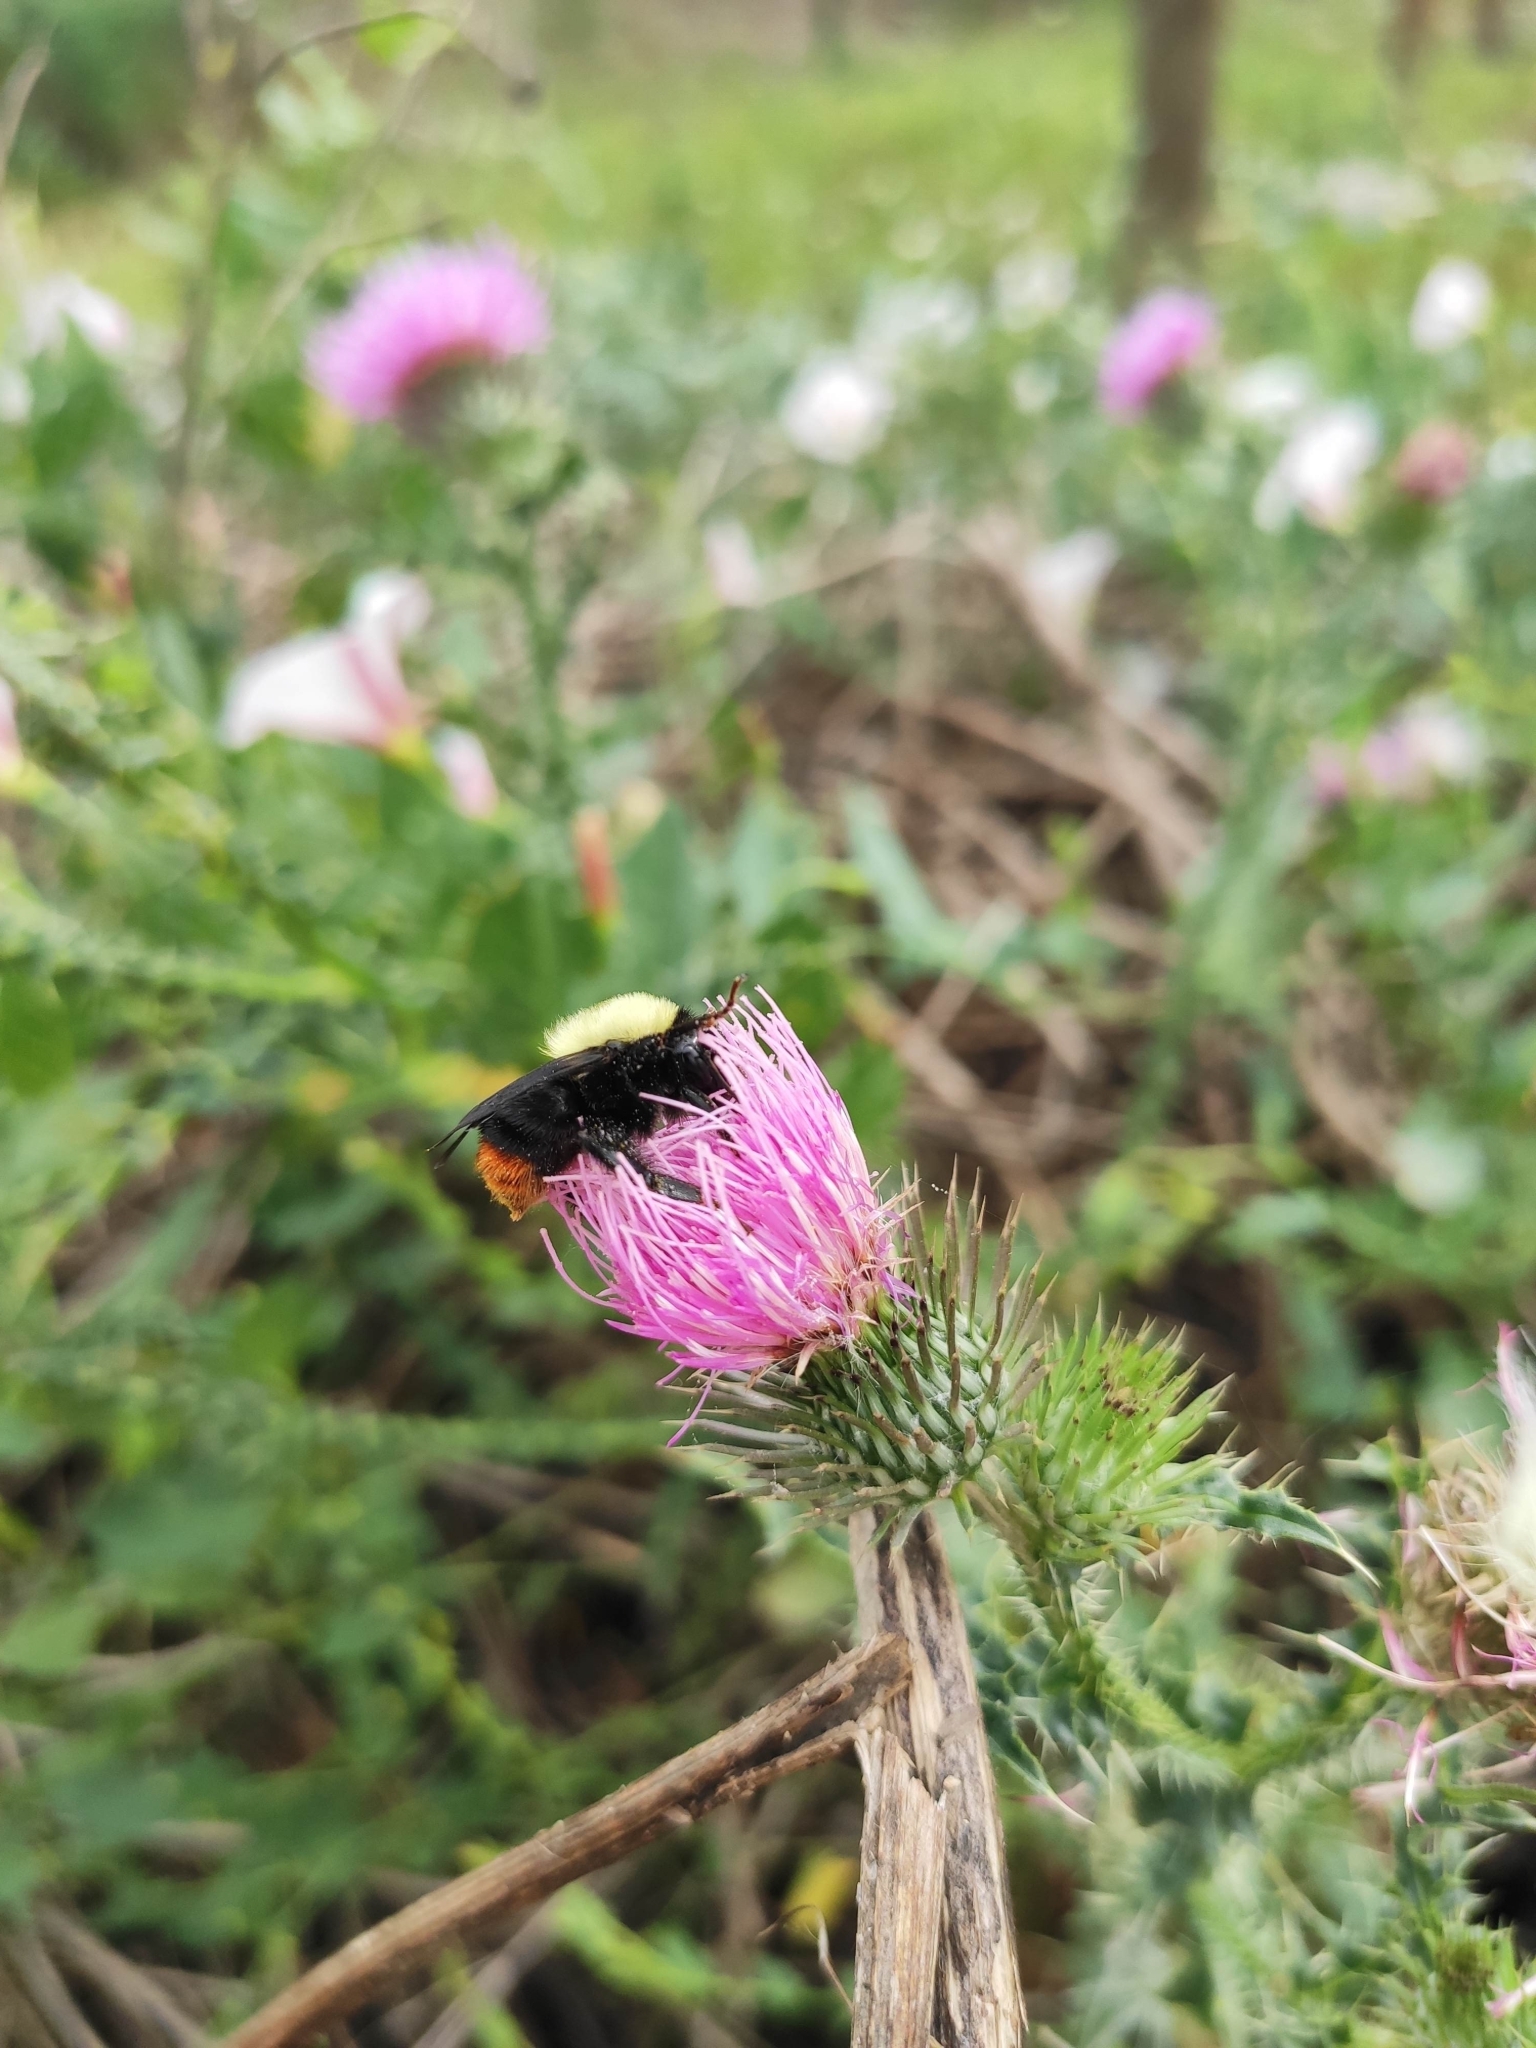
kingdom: Animalia
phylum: Arthropoda
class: Insecta
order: Hymenoptera
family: Apidae
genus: Bombus
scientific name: Bombus bellicosus
